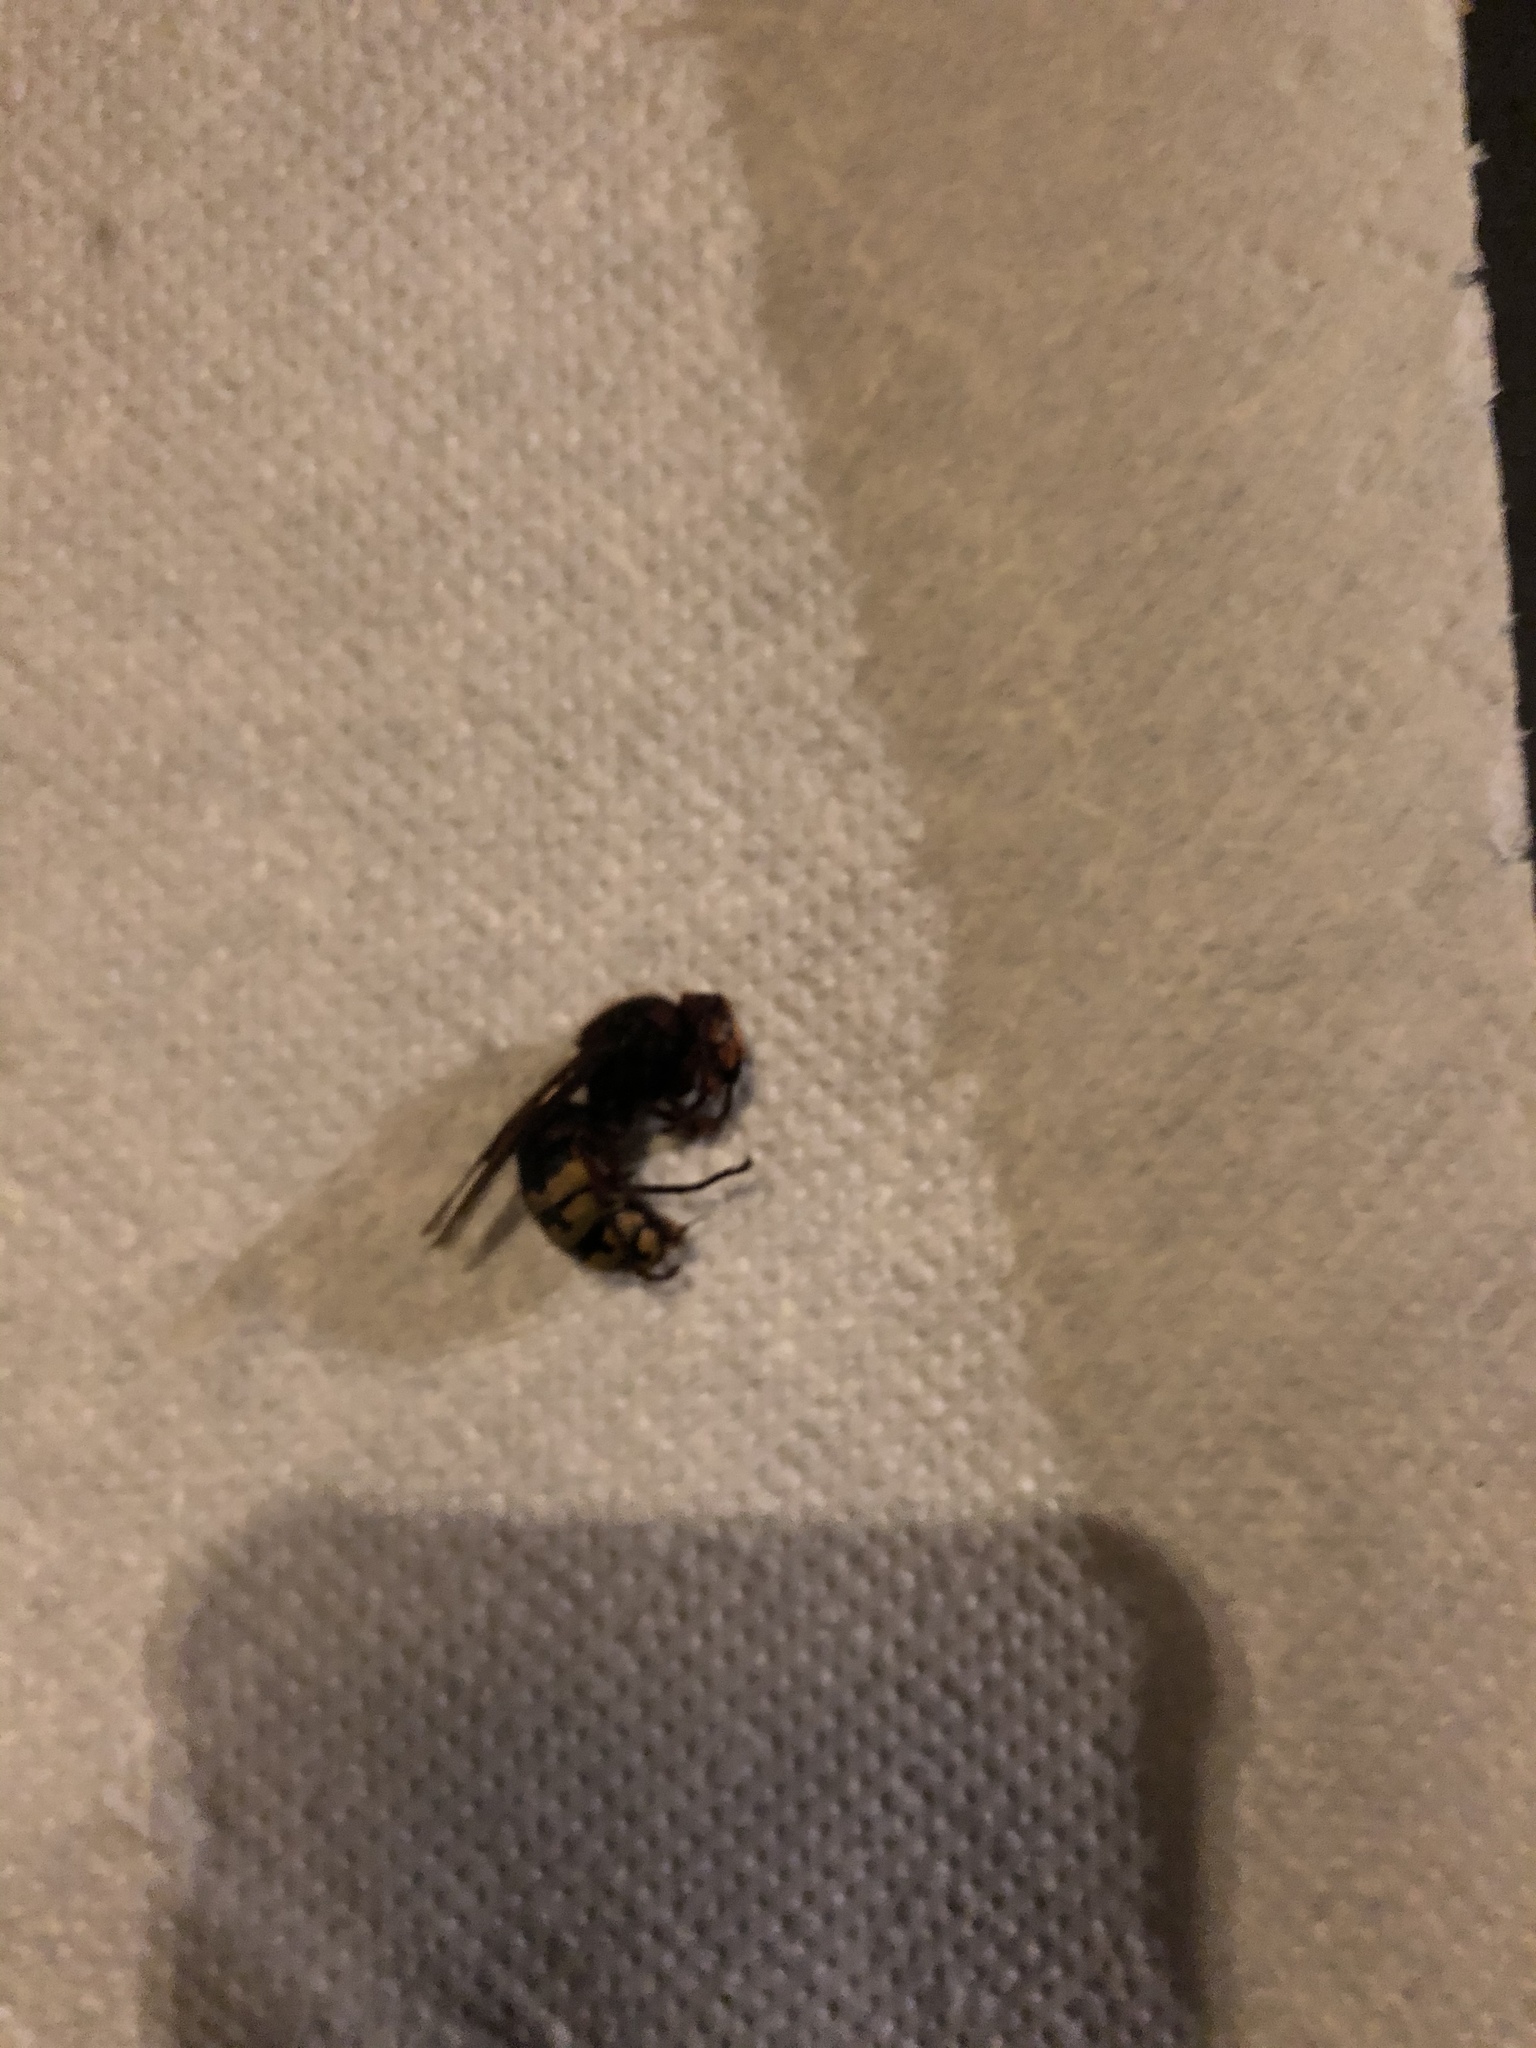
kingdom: Animalia
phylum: Arthropoda
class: Insecta
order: Hymenoptera
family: Vespidae
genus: Vespa
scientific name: Vespa crabro
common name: Hornet
